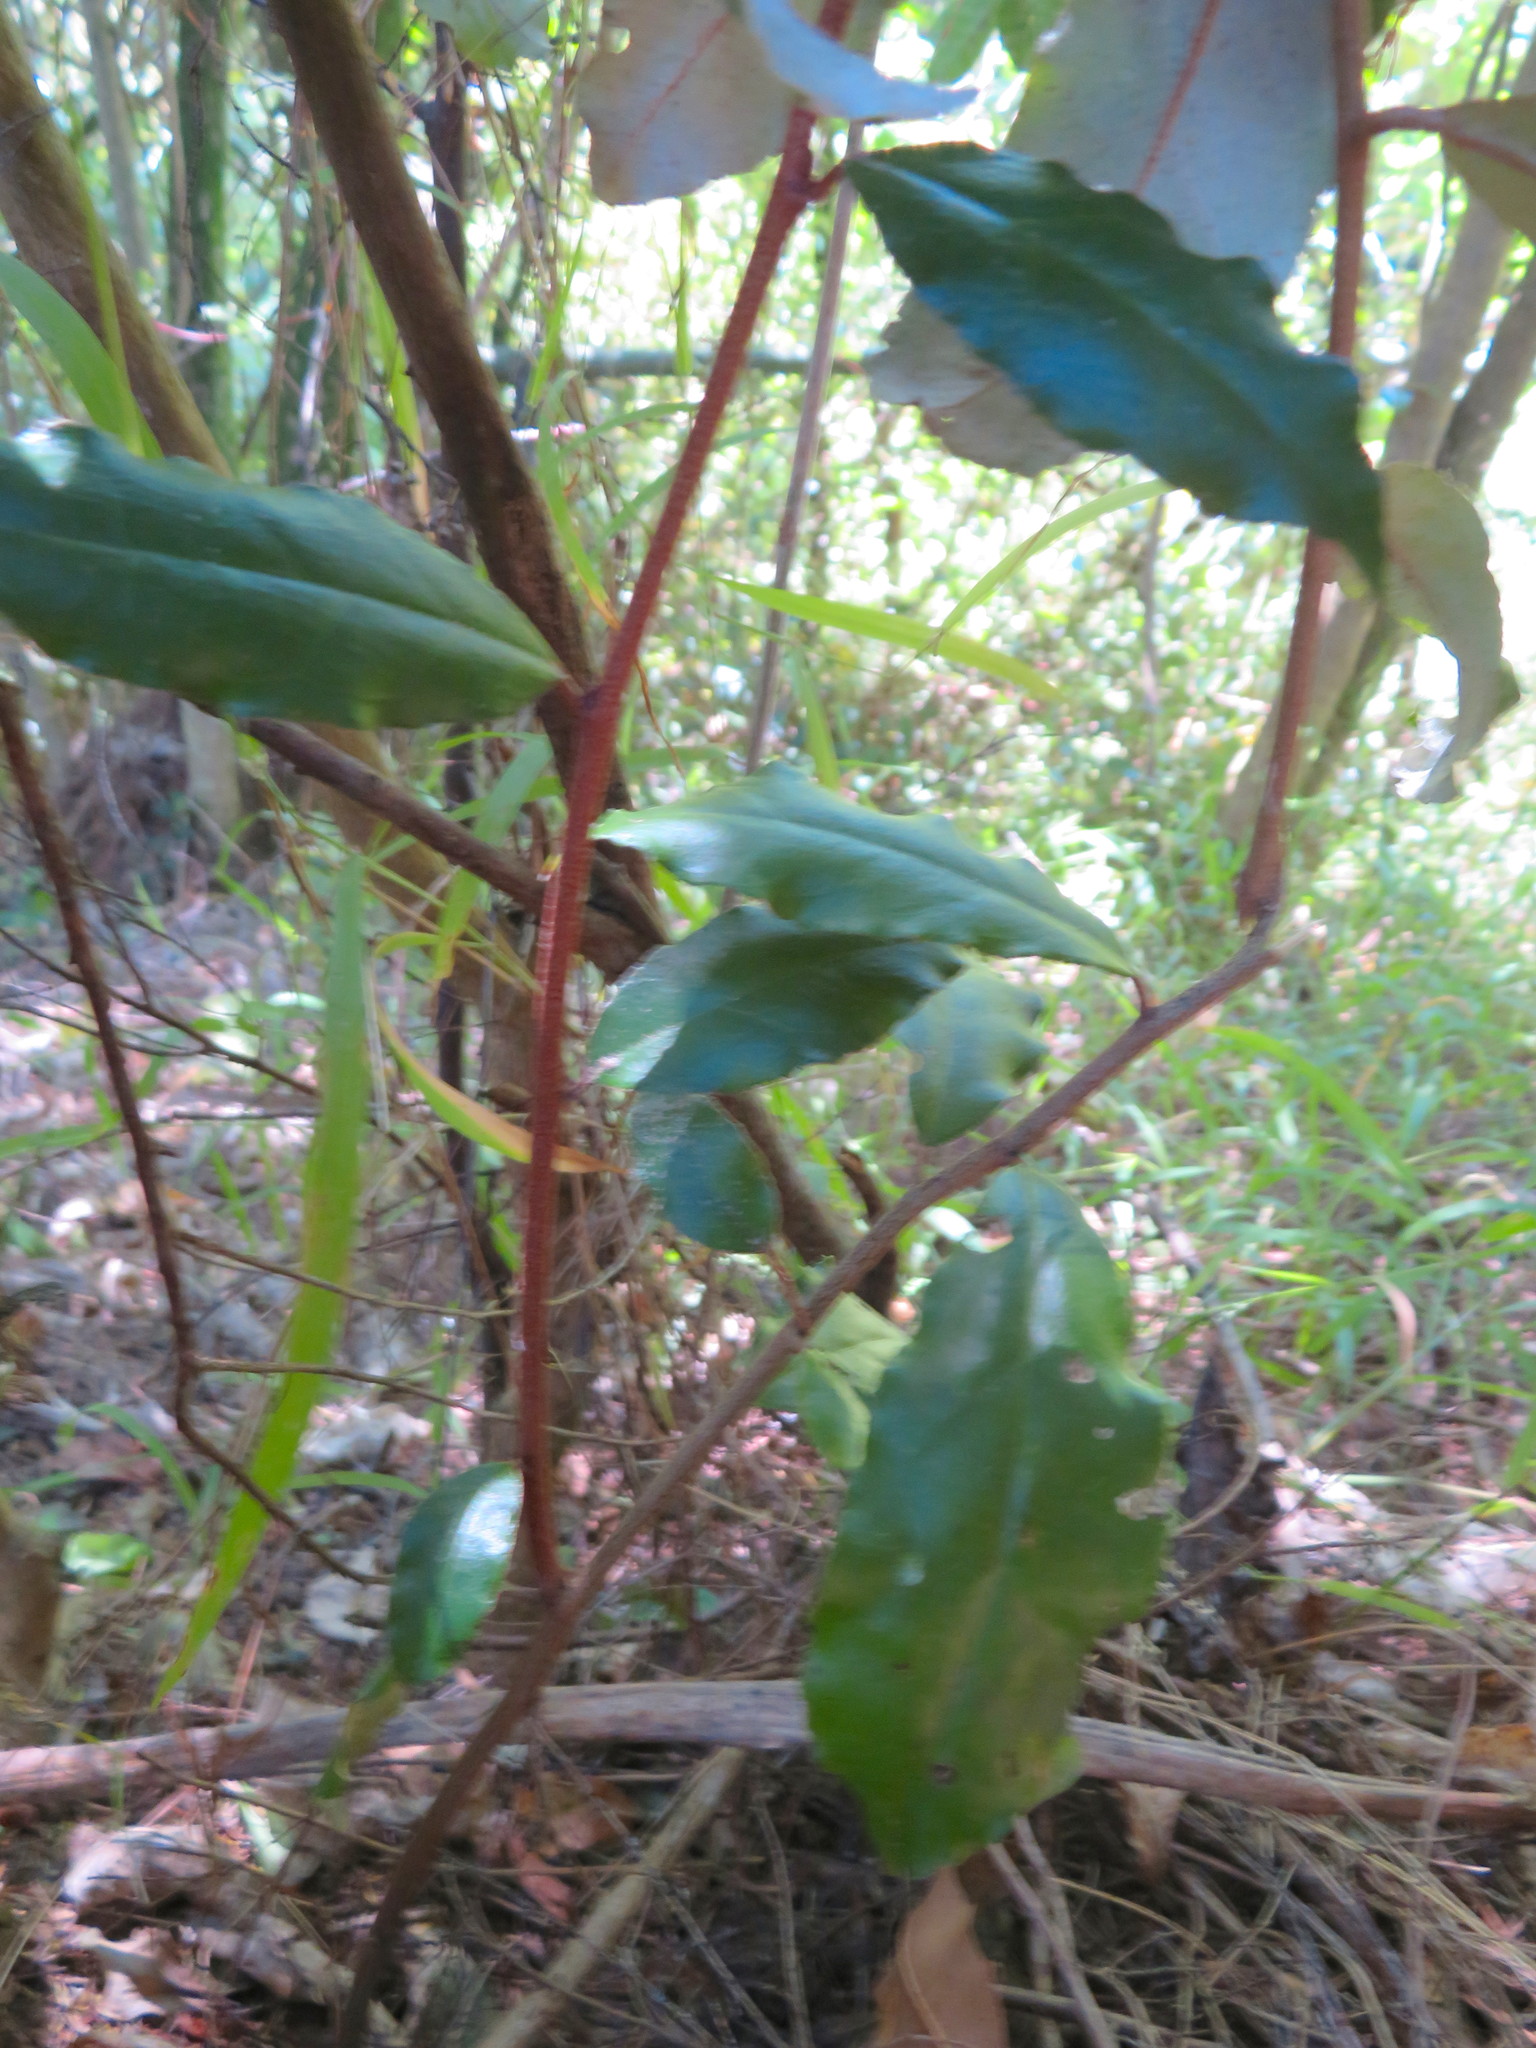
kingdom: Plantae
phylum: Tracheophyta
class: Magnoliopsida
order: Rosales
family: Elaeagnaceae
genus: Elaeagnus
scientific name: Elaeagnus reflexa
